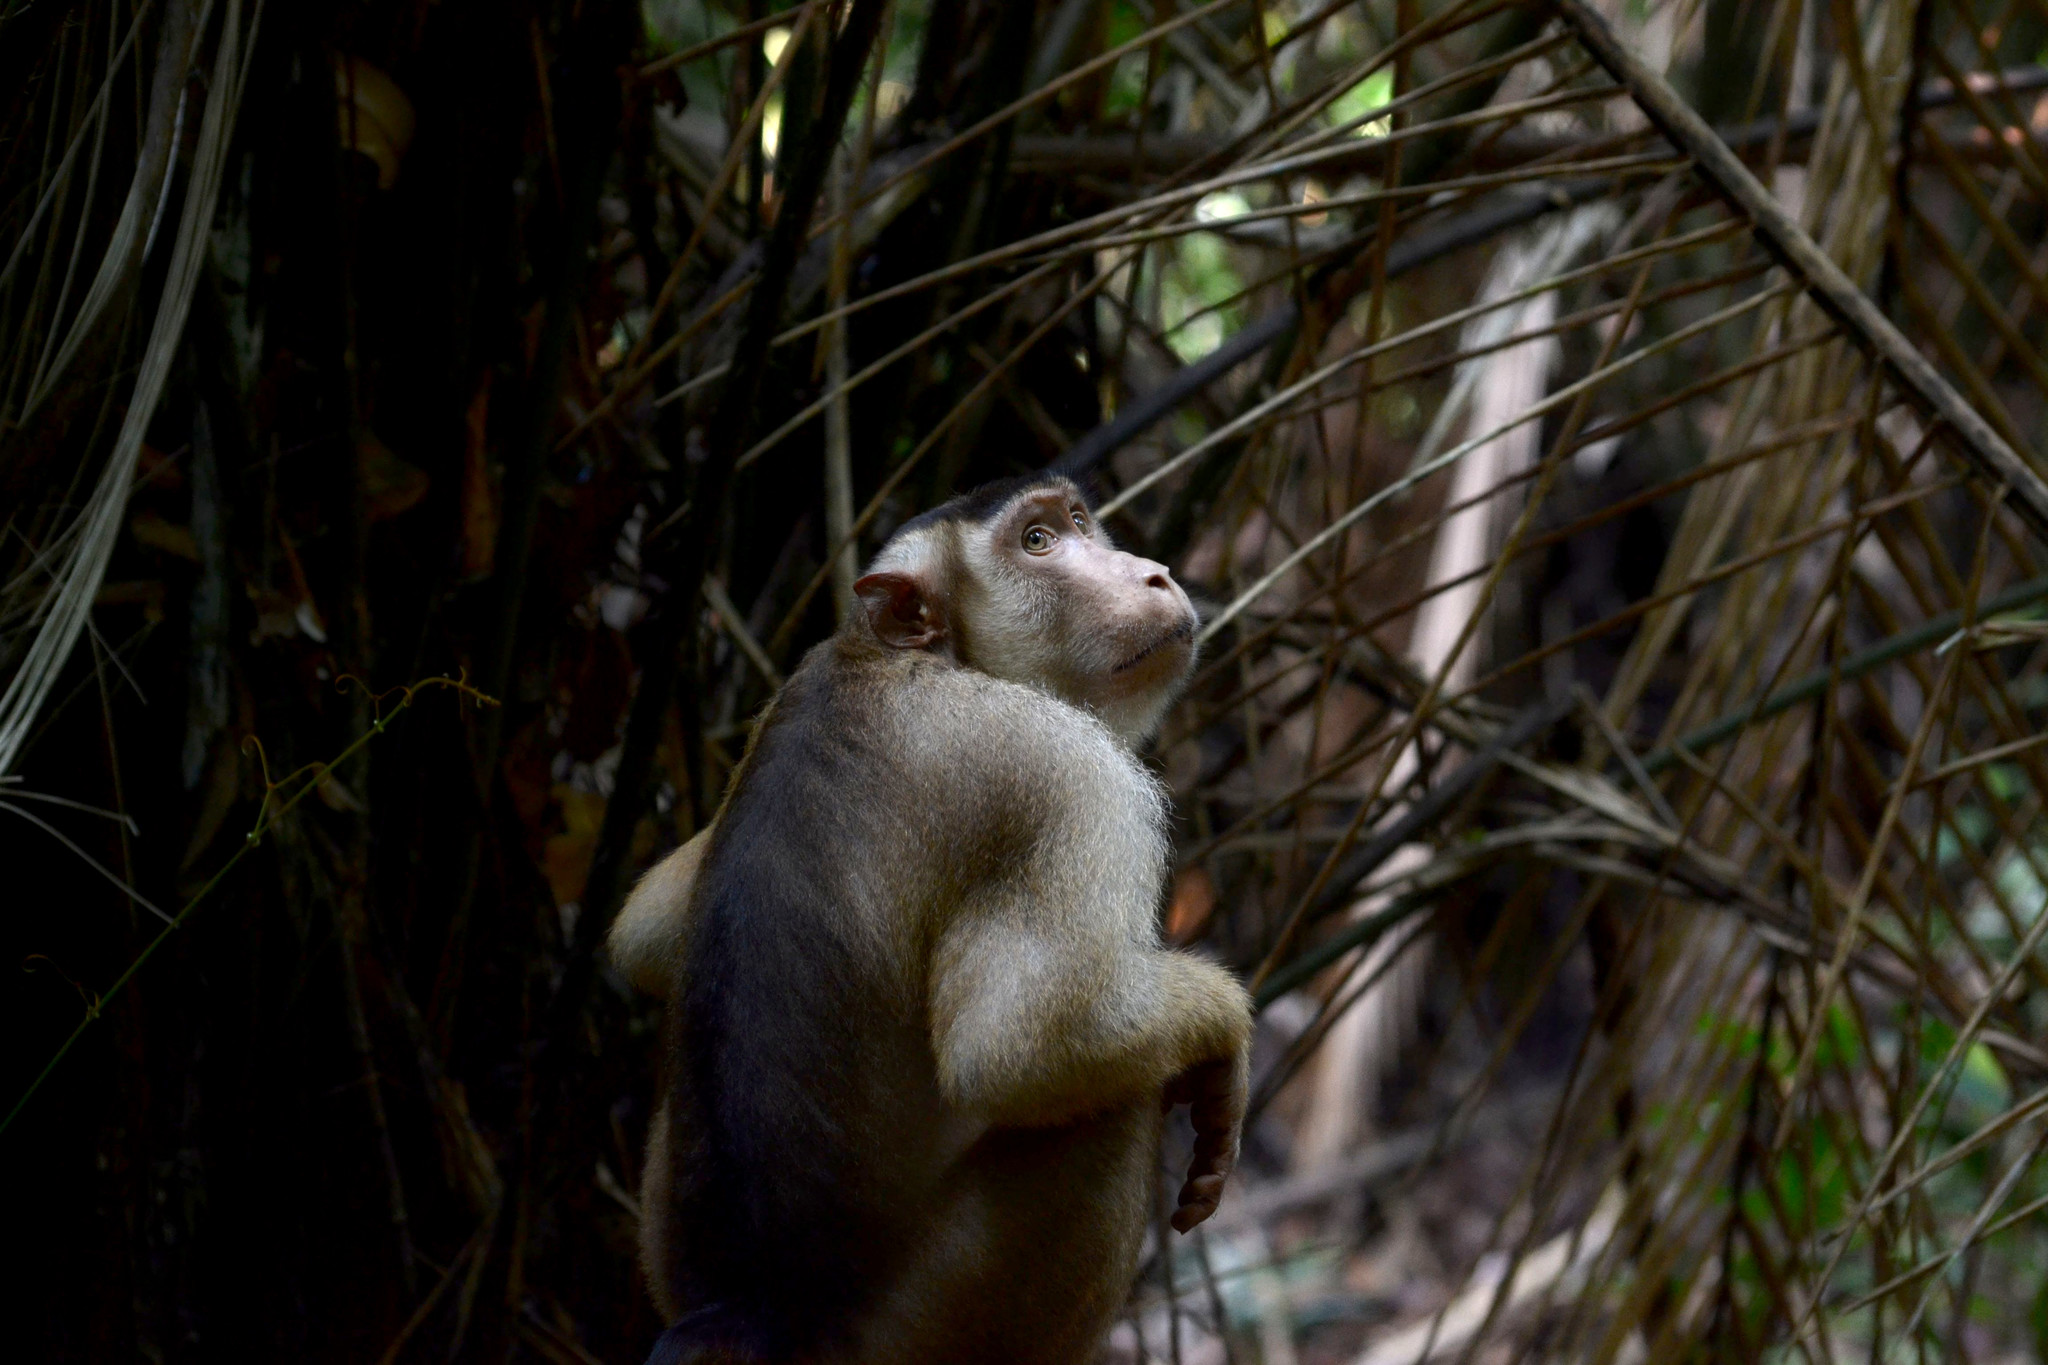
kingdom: Animalia
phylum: Chordata
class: Mammalia
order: Primates
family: Cercopithecidae
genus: Macaca
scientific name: Macaca nemestrina
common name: Southern pig-tailed macaque
